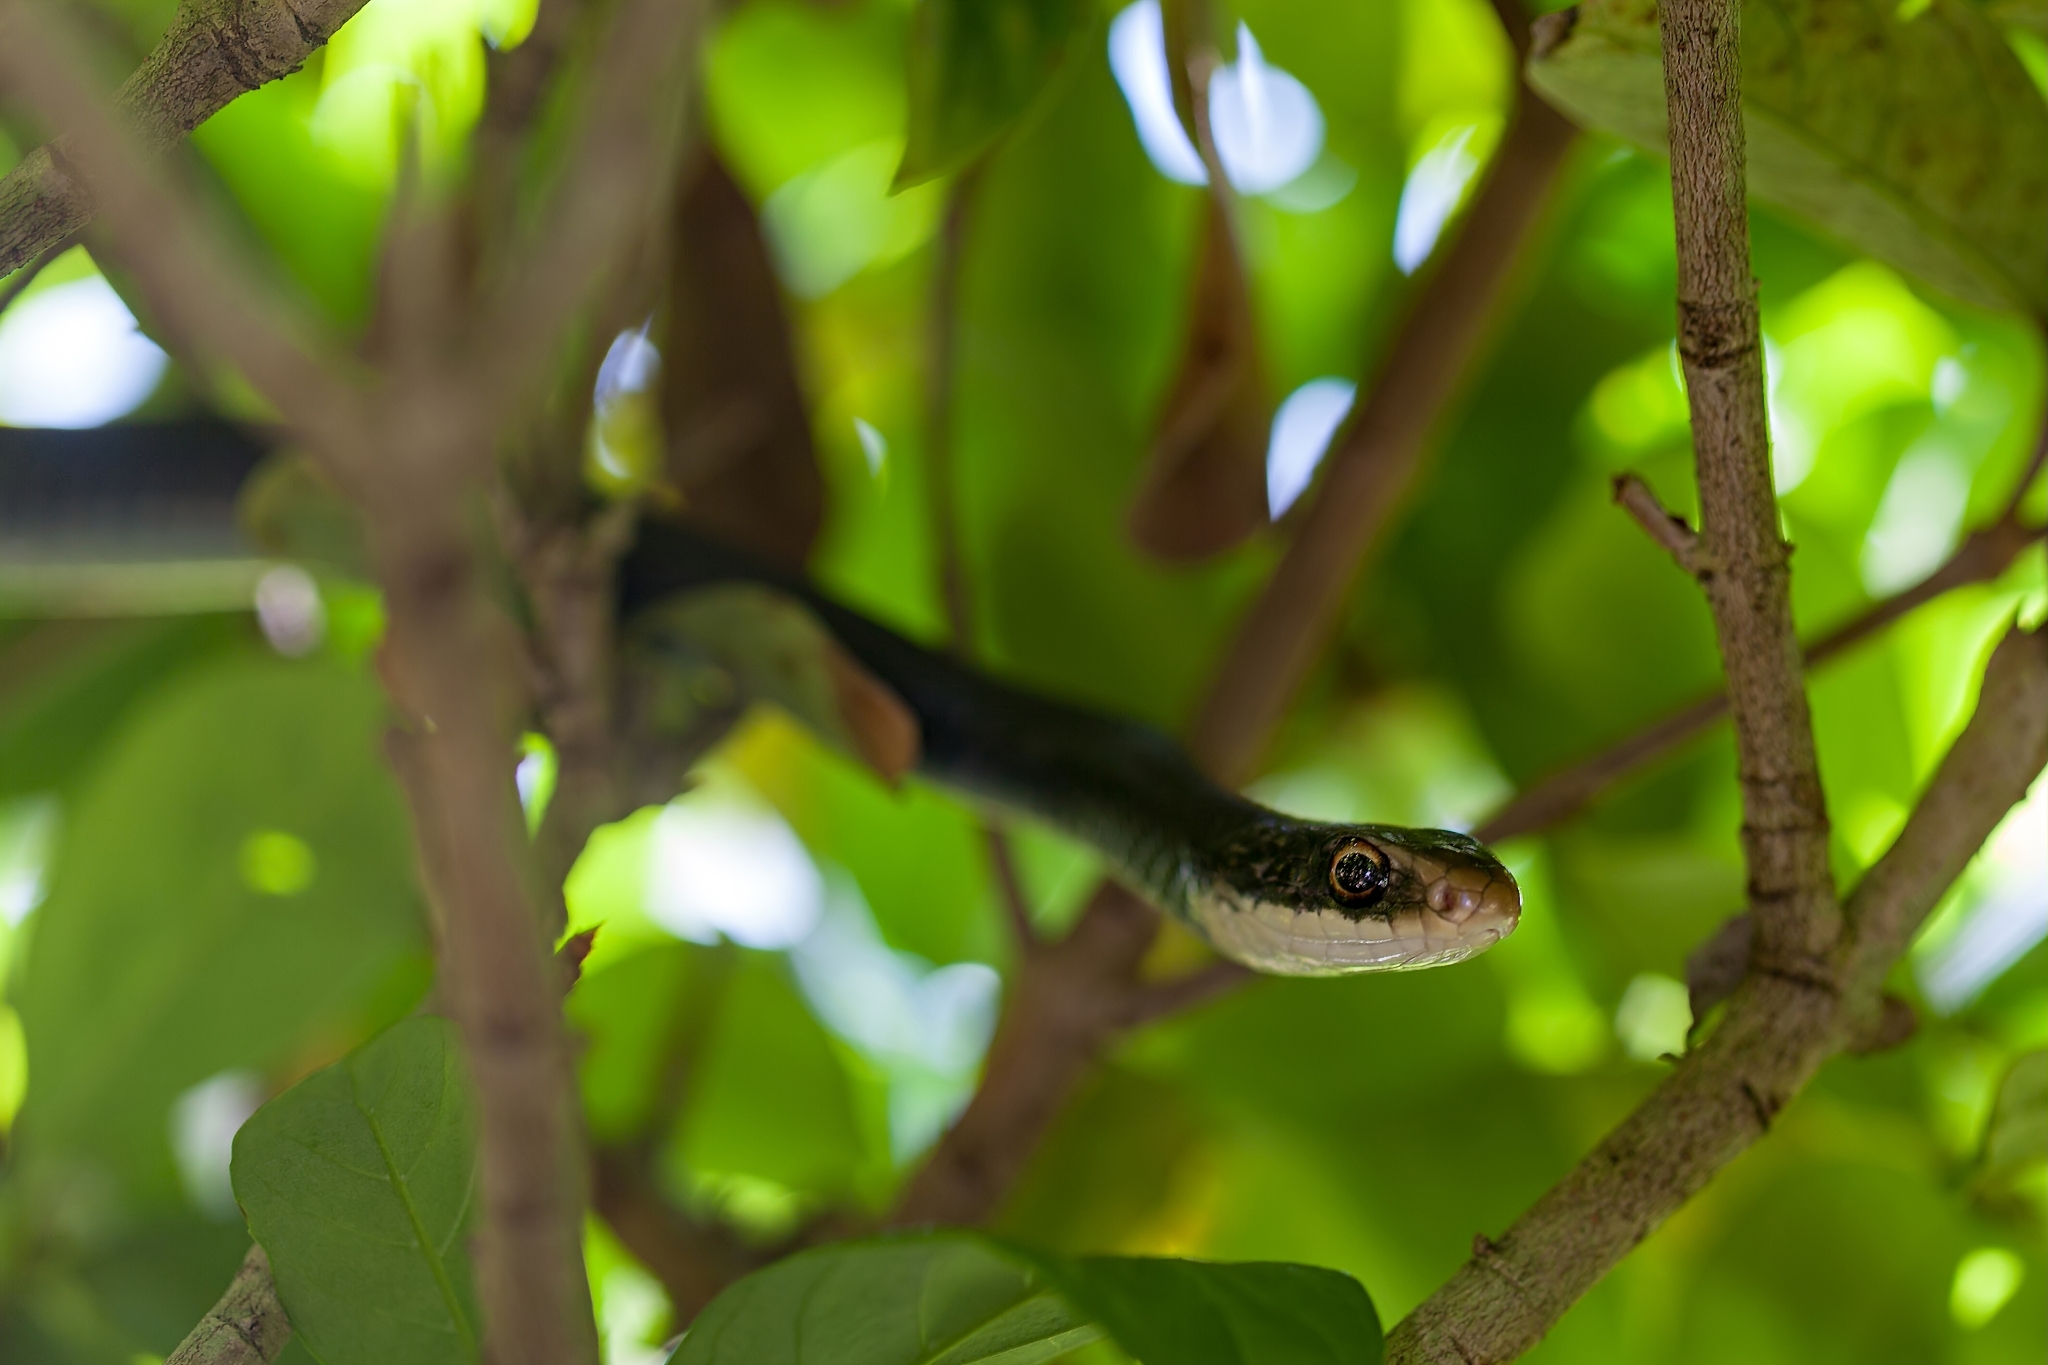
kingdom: Animalia
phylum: Chordata
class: Squamata
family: Colubridae
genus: Coluber
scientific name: Coluber constrictor
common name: Eastern racer
